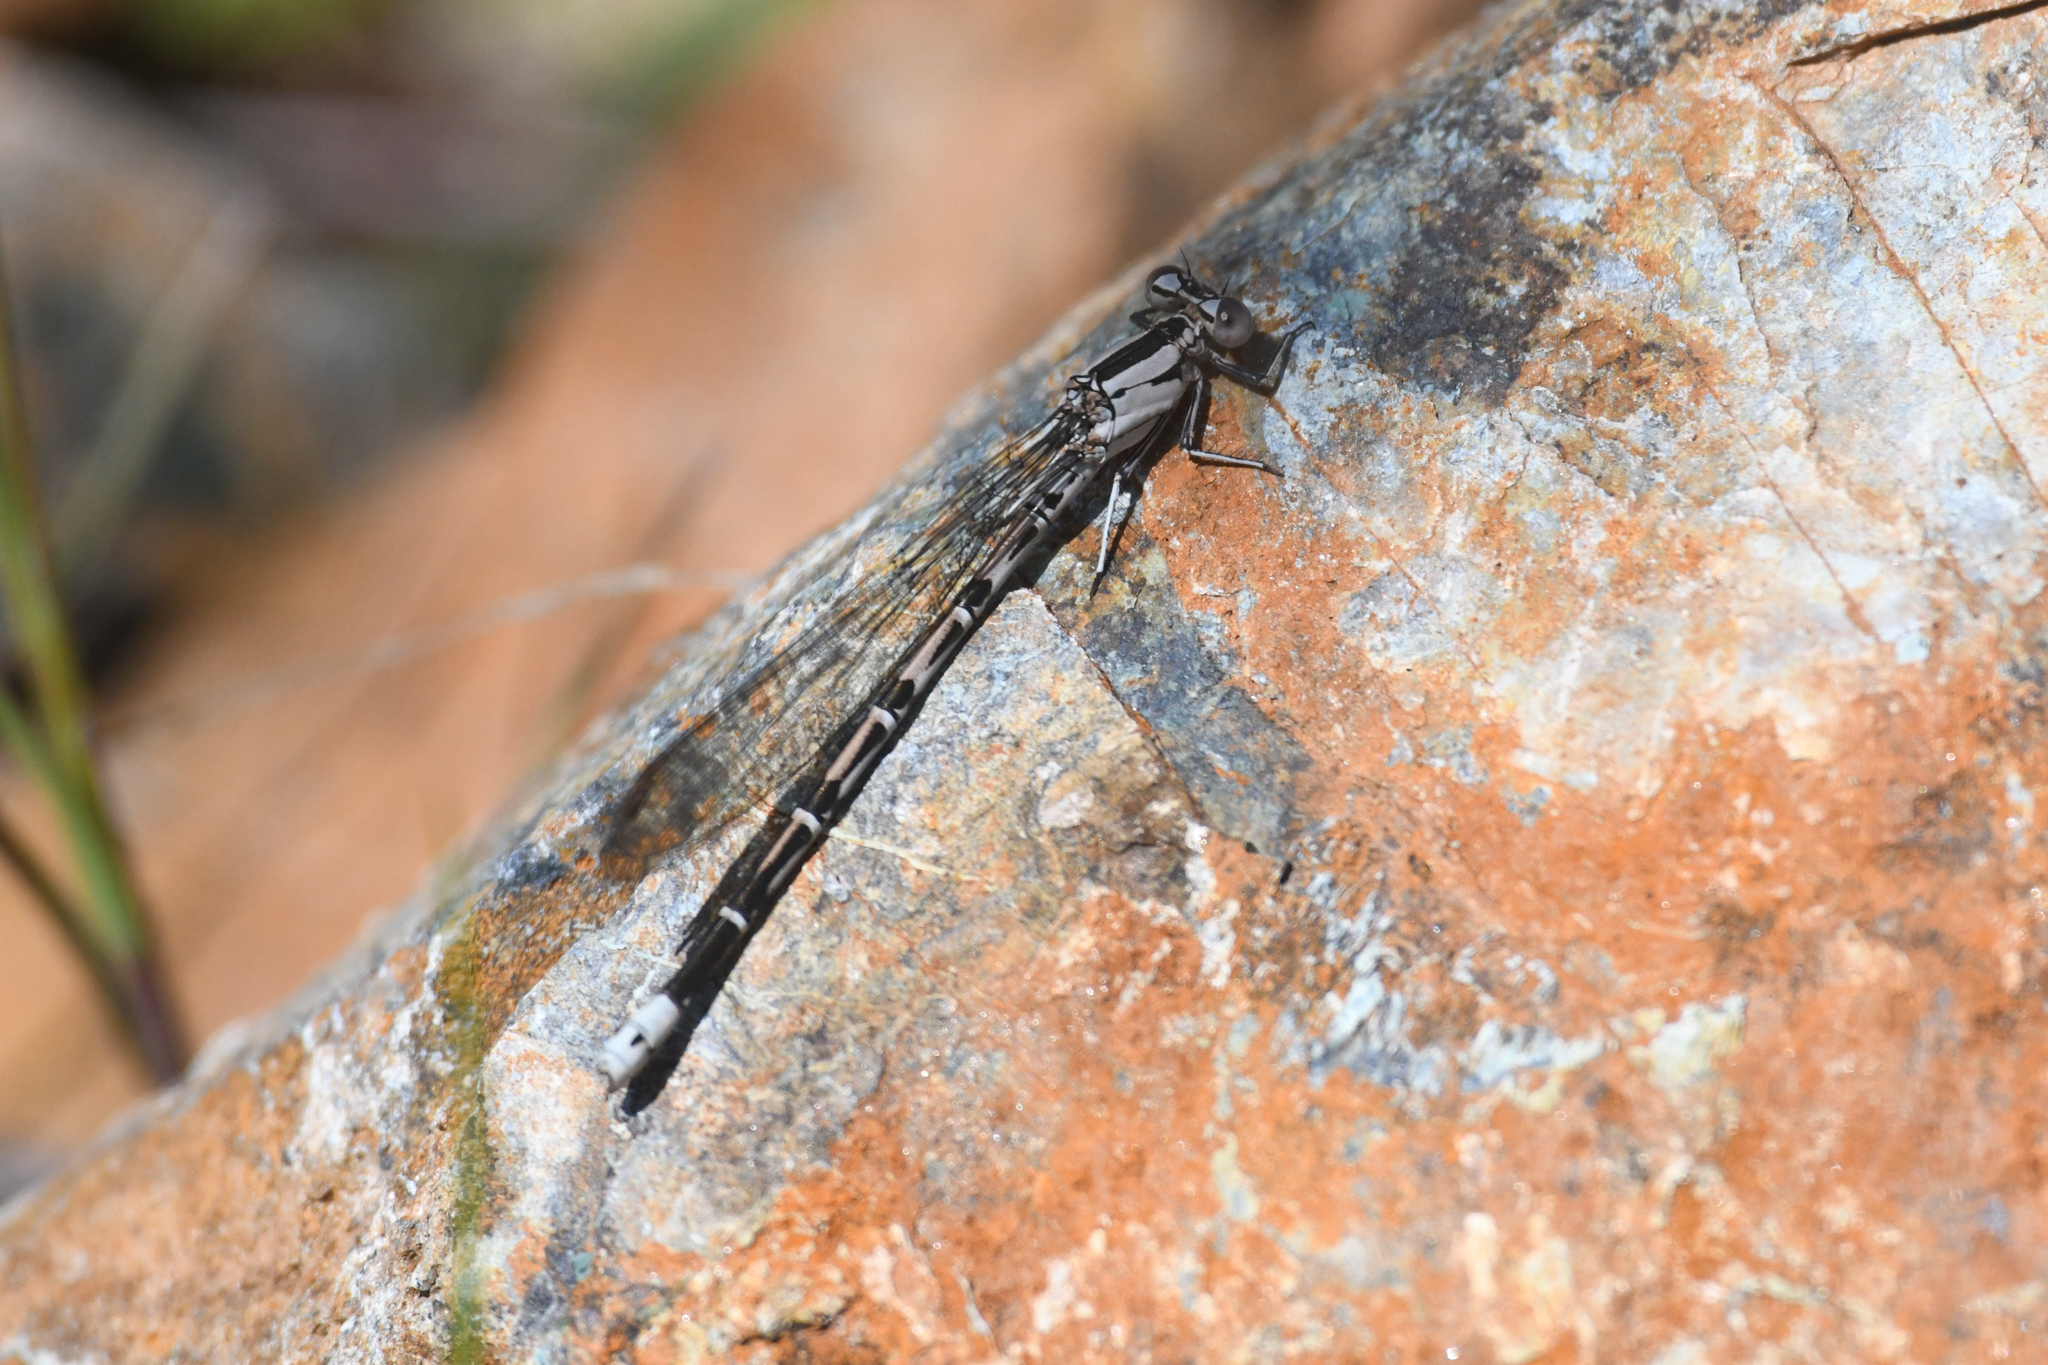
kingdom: Animalia
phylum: Arthropoda
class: Insecta
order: Odonata
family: Coenagrionidae
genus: Argia
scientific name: Argia vivida
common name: Vivid dancer
